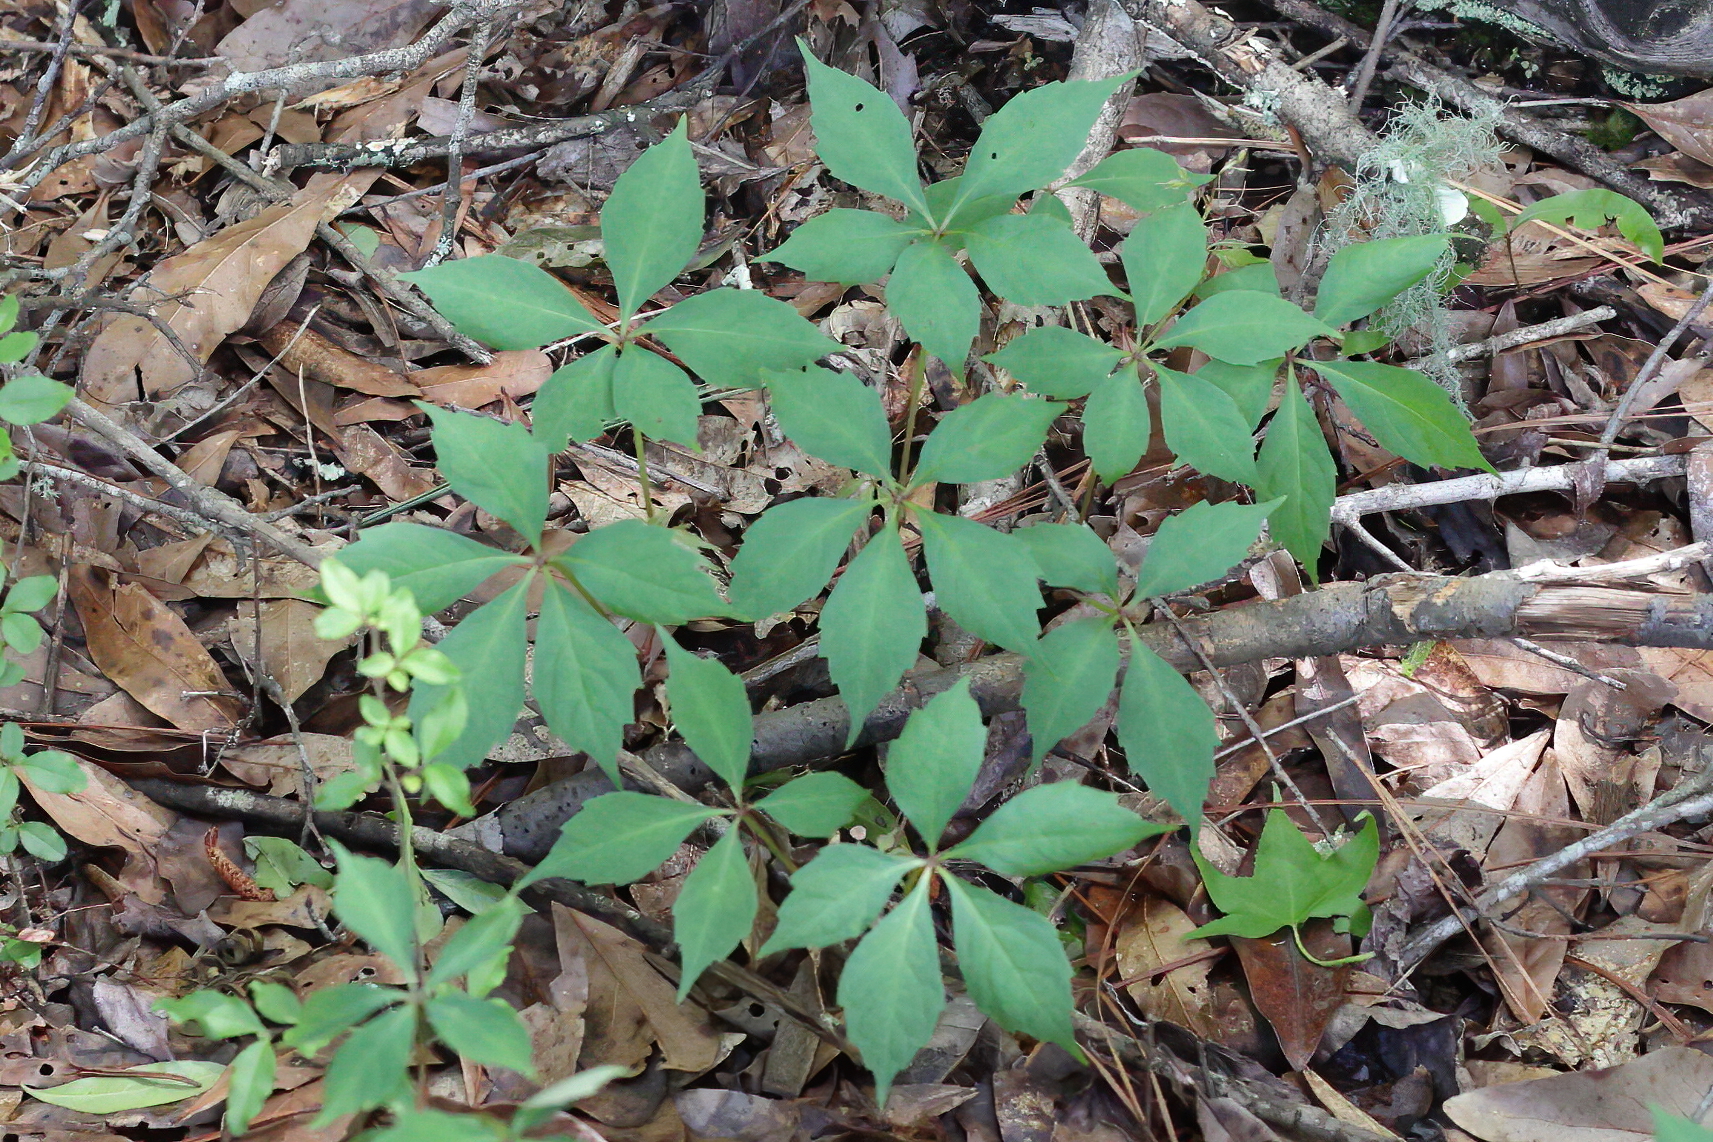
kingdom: Plantae
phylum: Tracheophyta
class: Magnoliopsida
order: Vitales
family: Vitaceae
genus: Parthenocissus
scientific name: Parthenocissus quinquefolia
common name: Virginia-creeper
